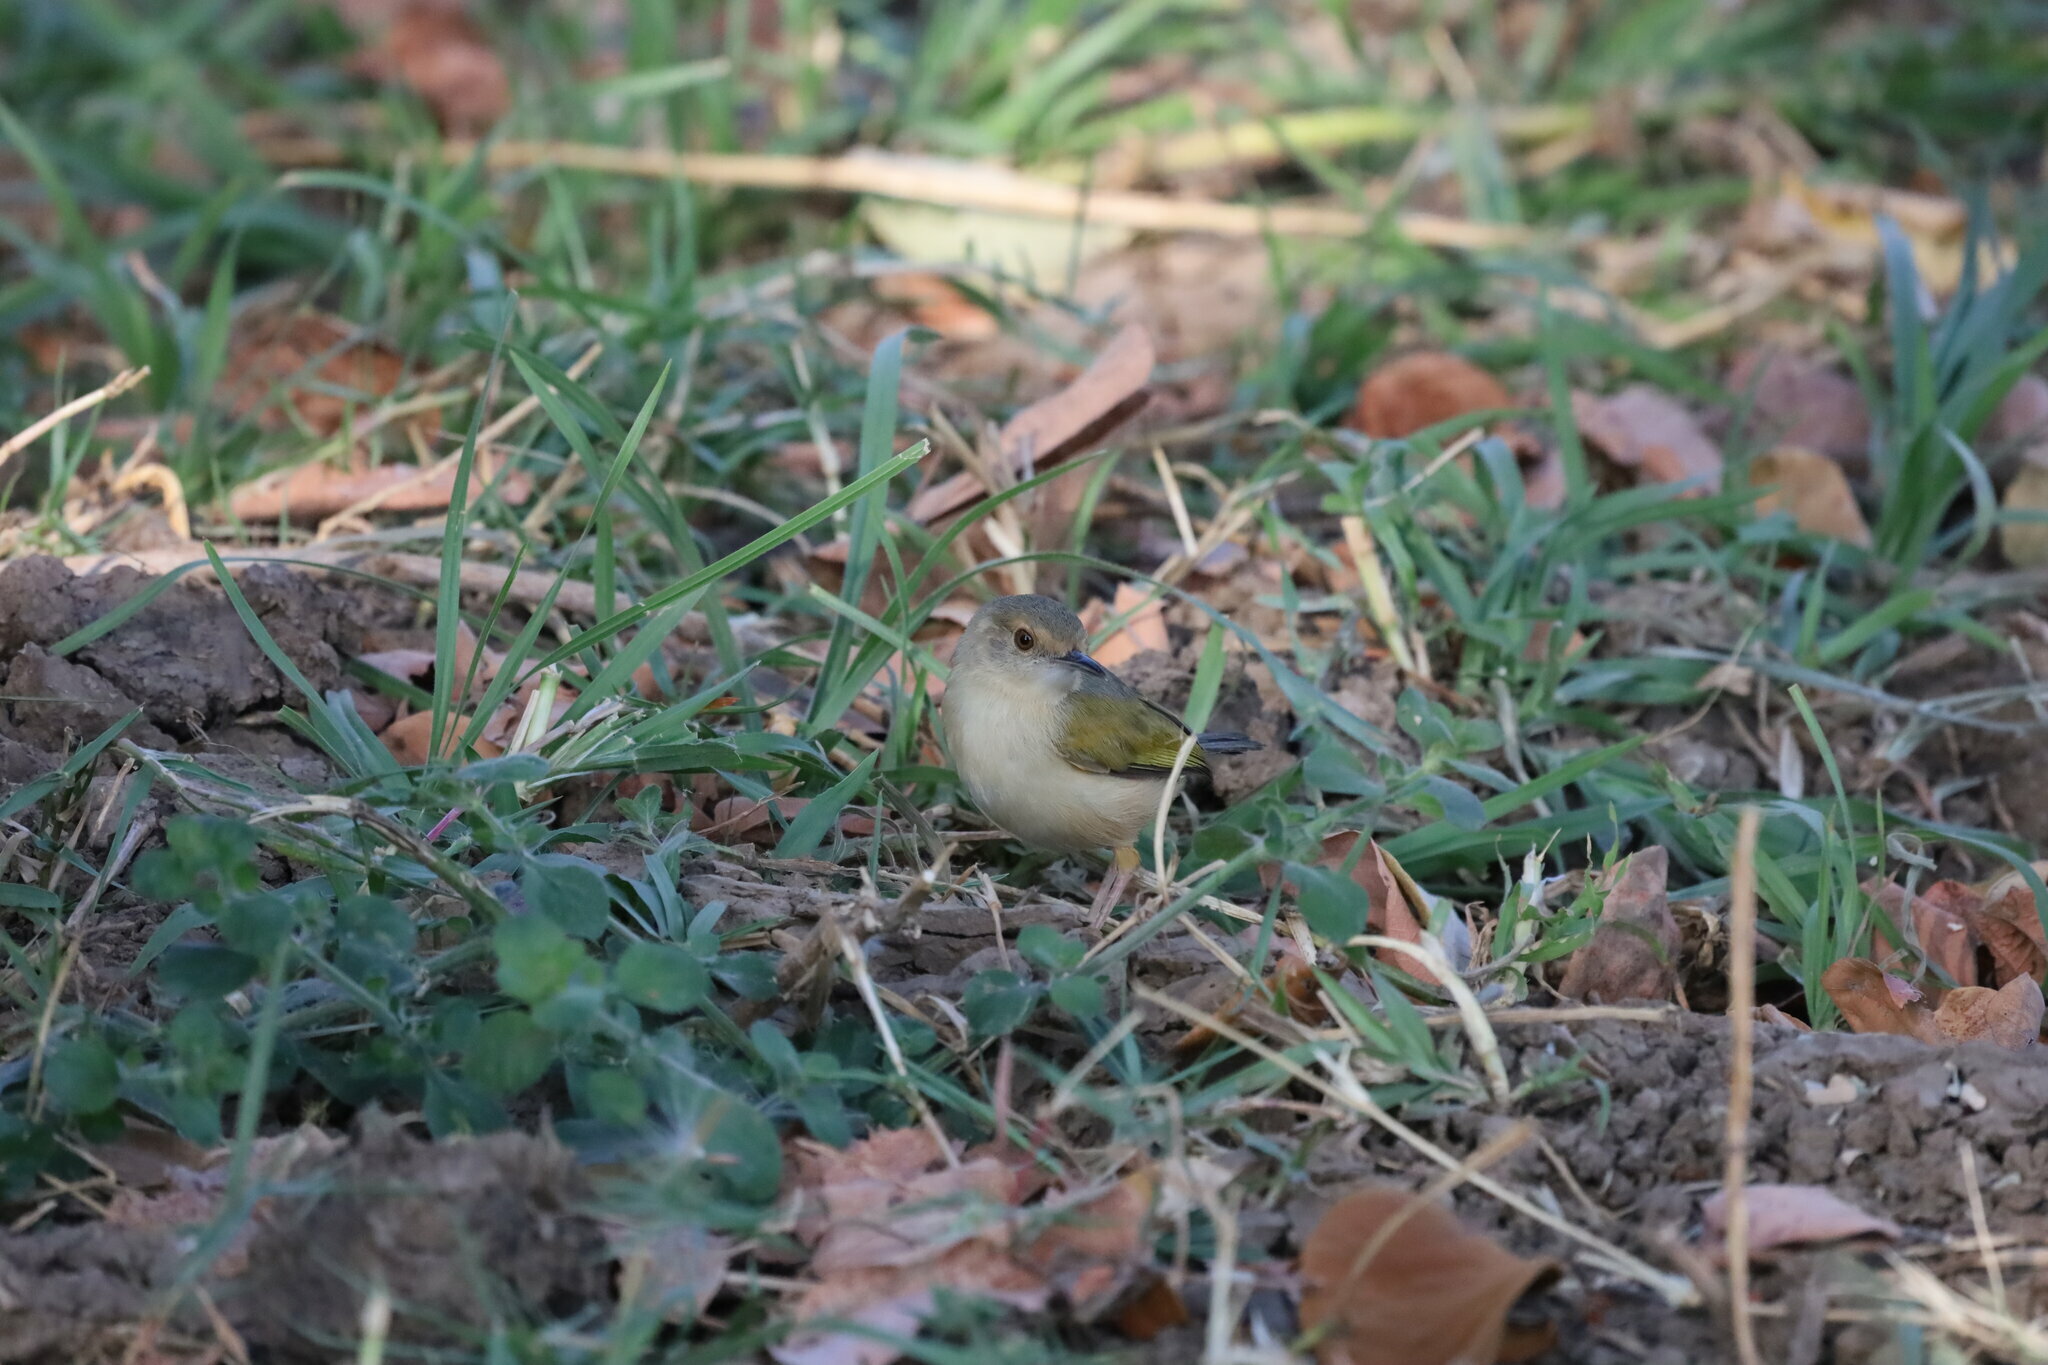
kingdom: Animalia
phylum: Chordata
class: Aves
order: Passeriformes
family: Cisticolidae
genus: Camaroptera
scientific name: Camaroptera brachyura
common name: Green-backed camaroptera
